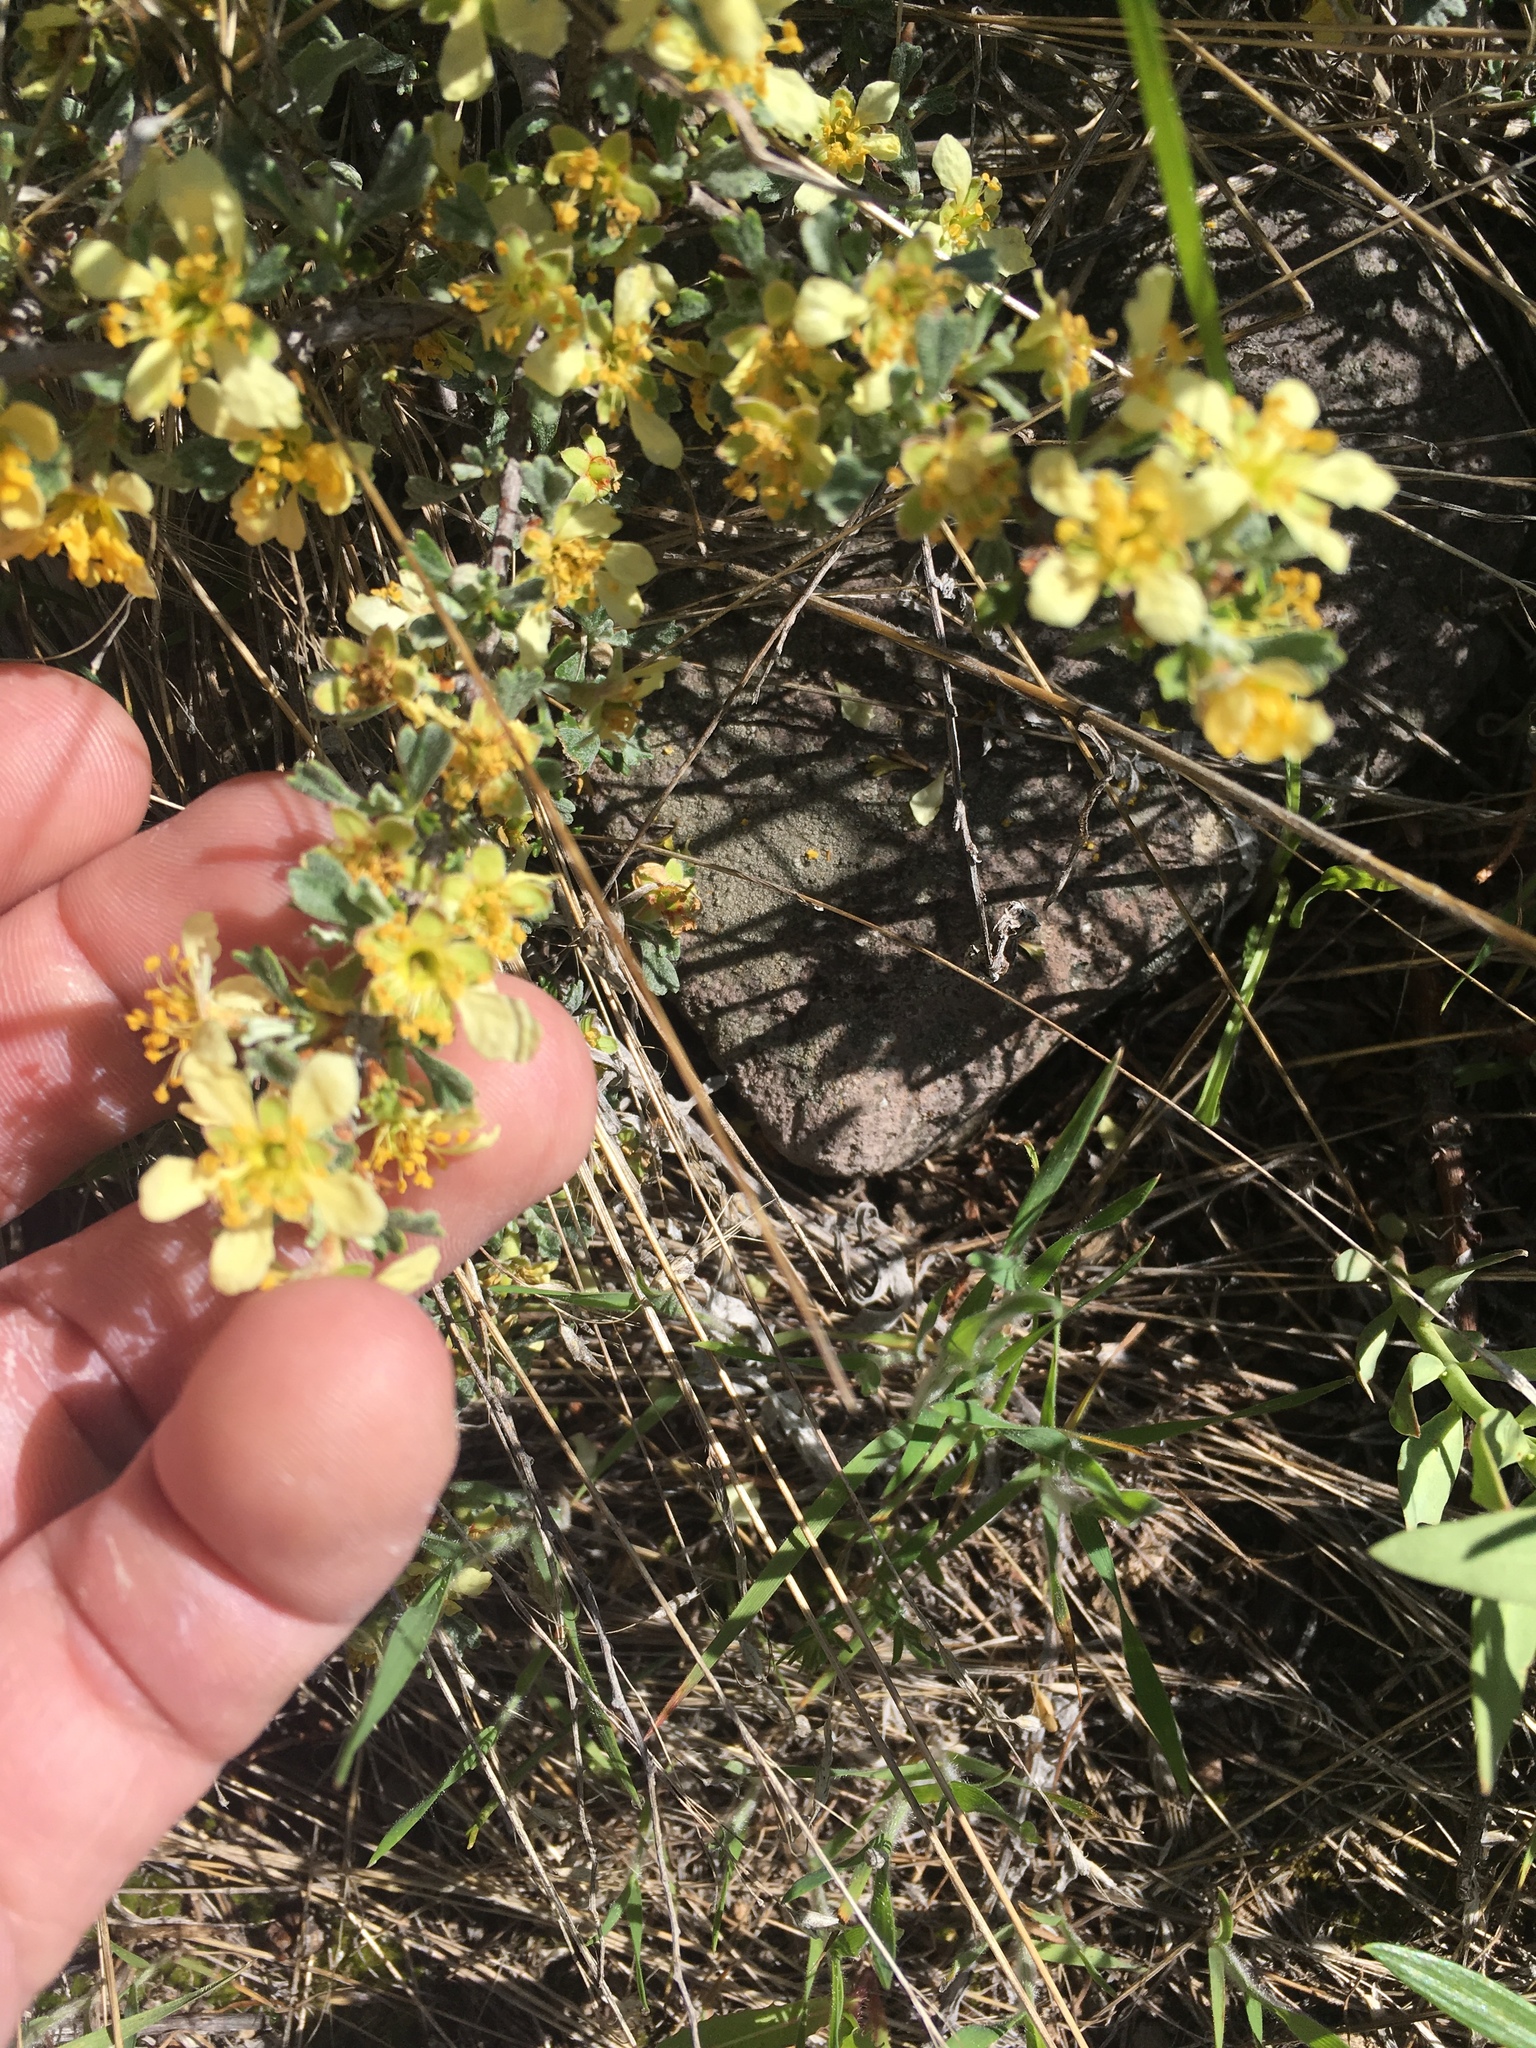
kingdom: Plantae
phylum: Tracheophyta
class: Magnoliopsida
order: Rosales
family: Rosaceae
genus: Purshia
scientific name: Purshia tridentata
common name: Antelope bitterbrush
